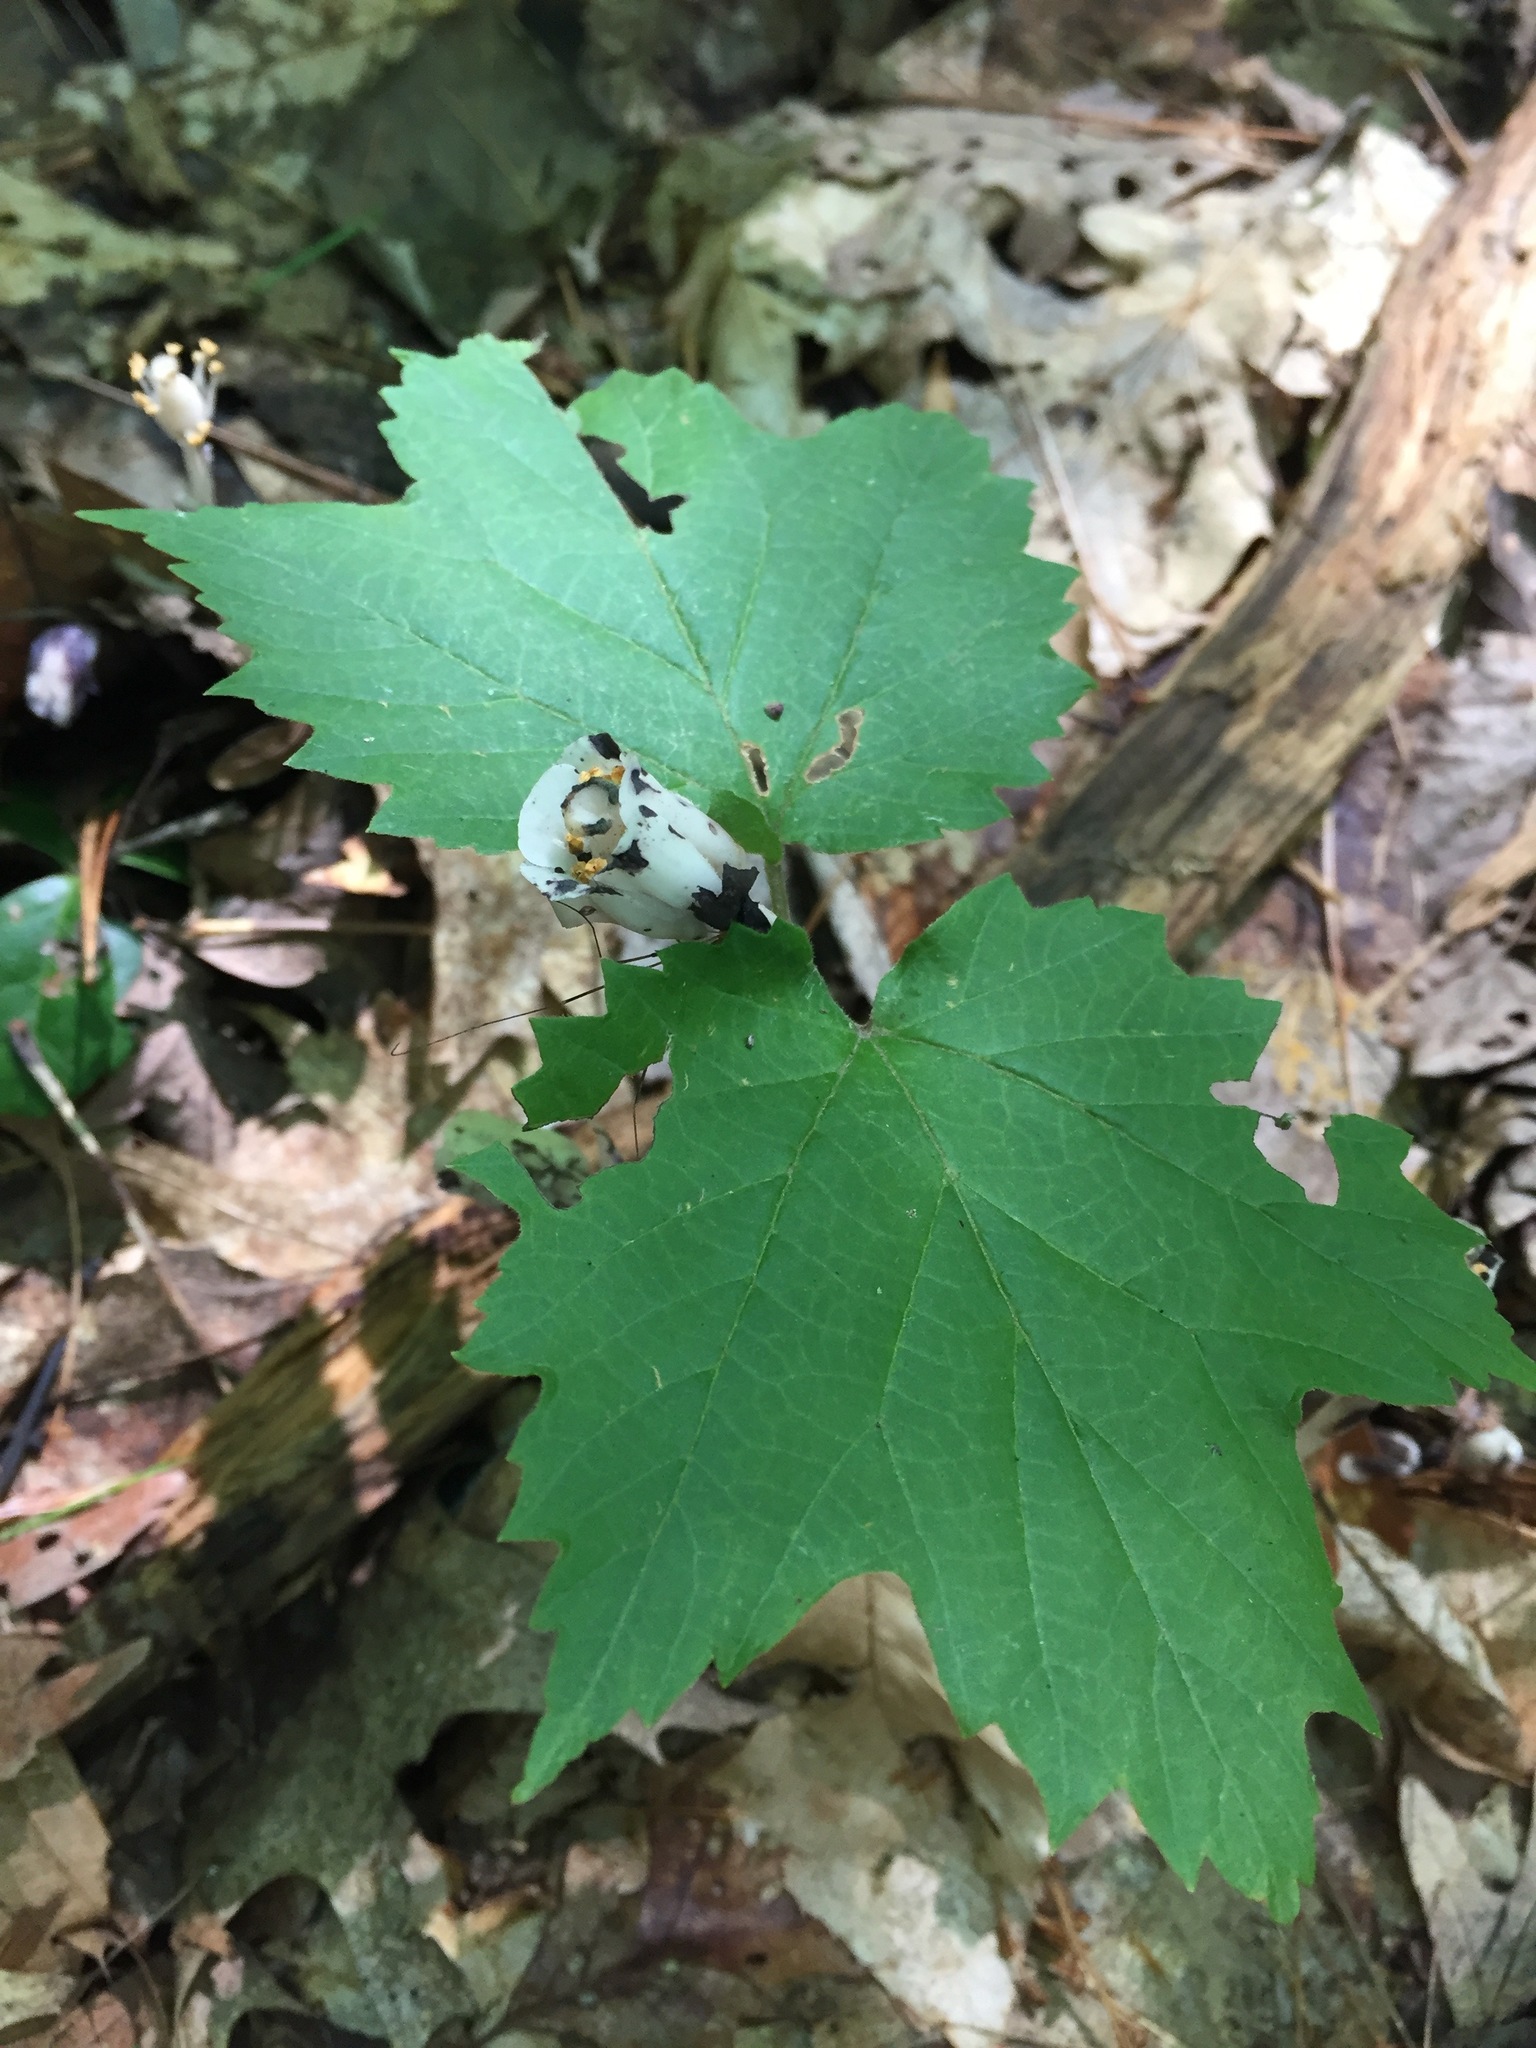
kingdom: Plantae
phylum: Tracheophyta
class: Magnoliopsida
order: Ericales
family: Ericaceae
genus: Monotropa
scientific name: Monotropa uniflora
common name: Convulsion root
